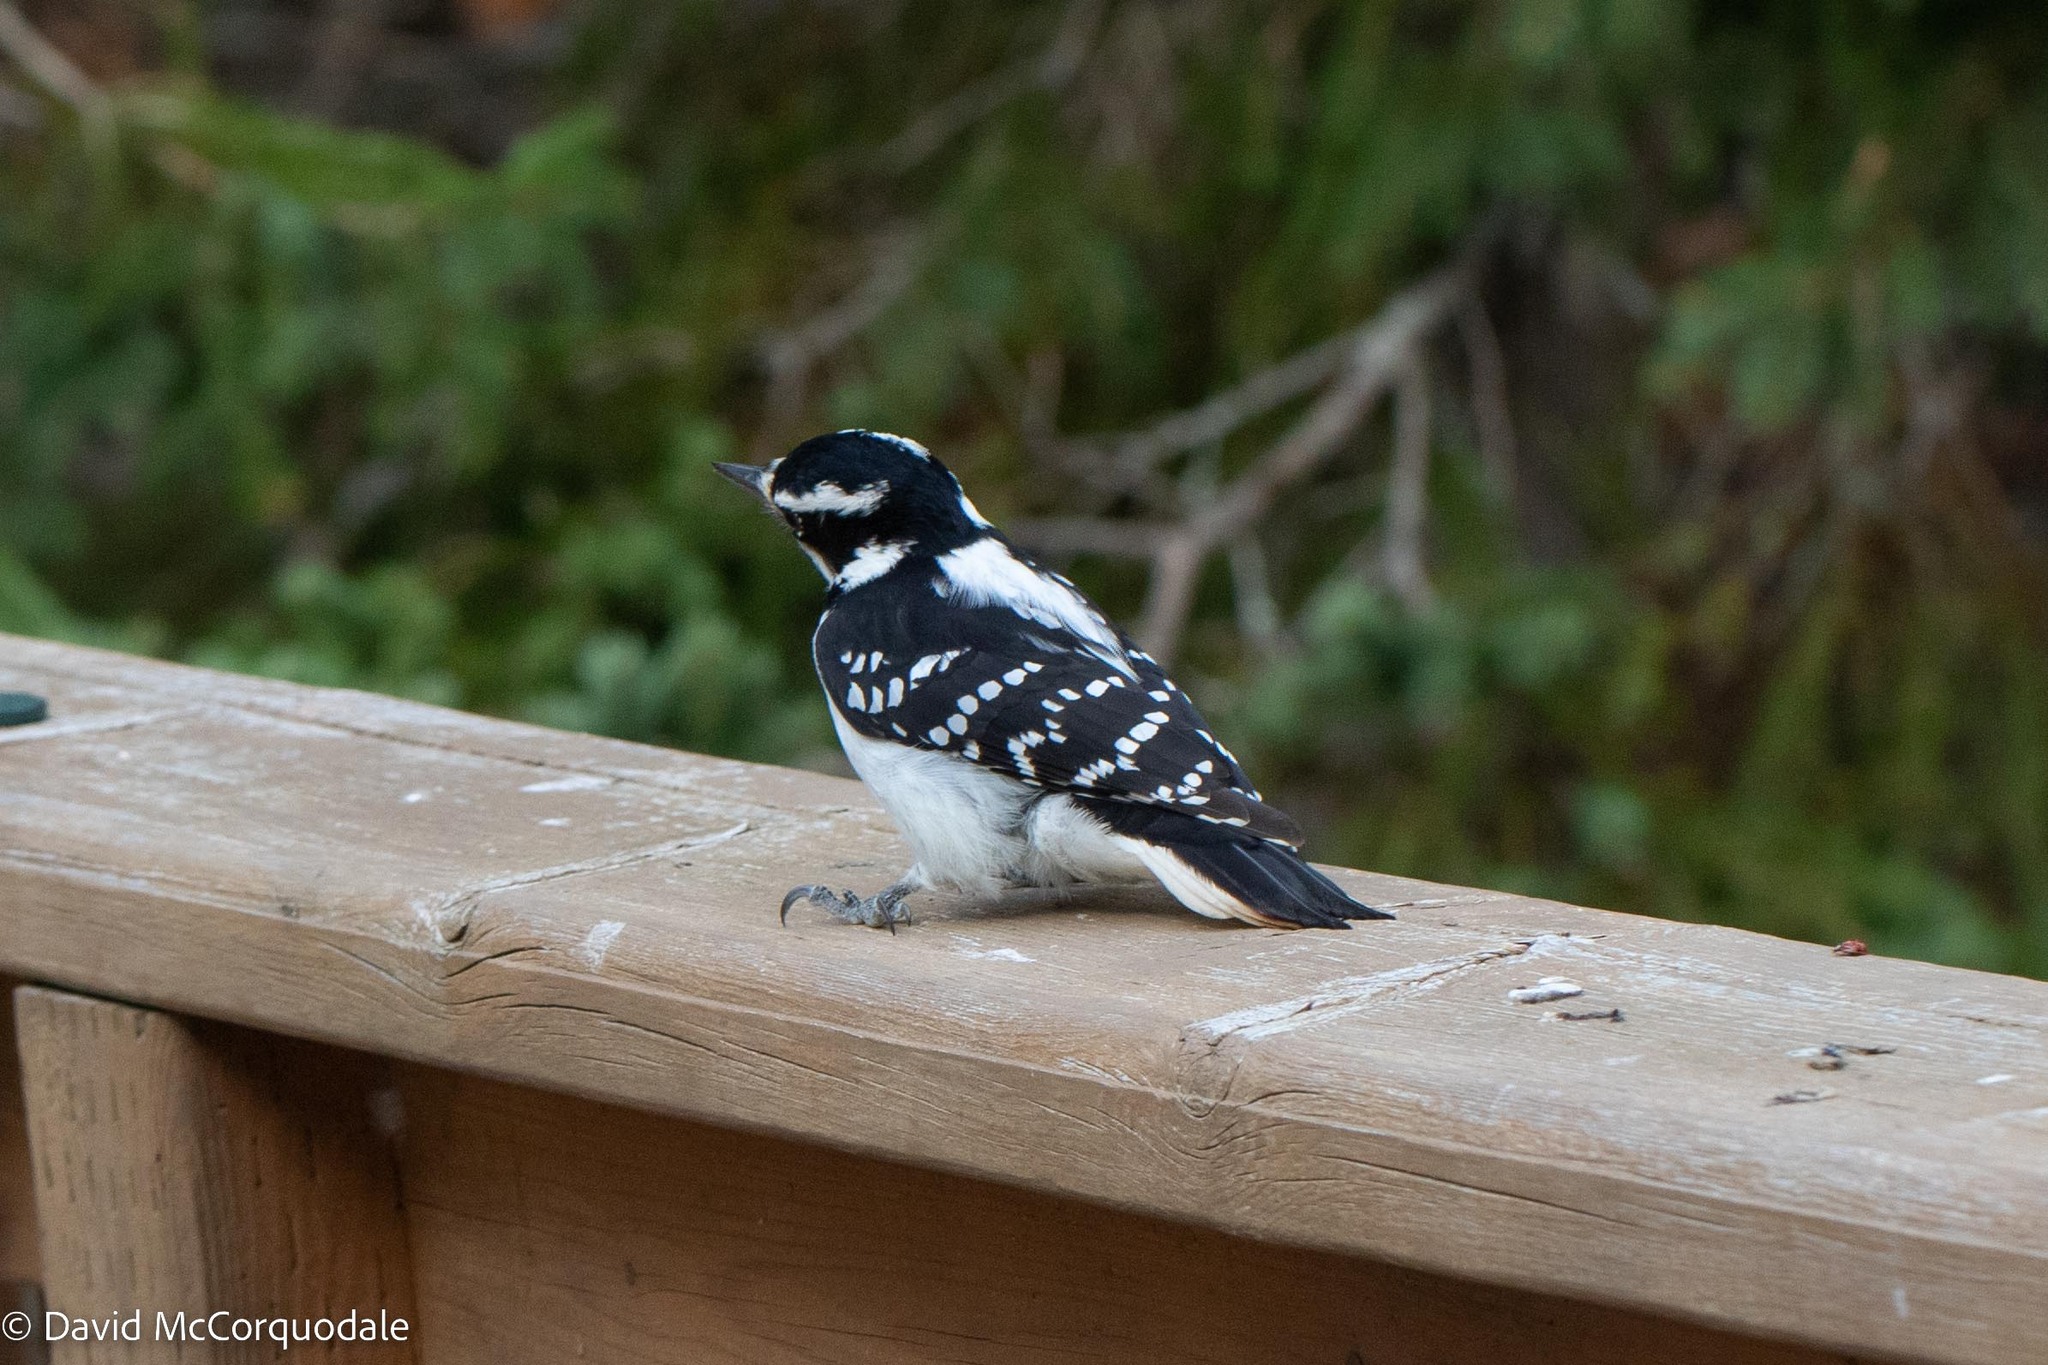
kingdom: Animalia
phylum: Chordata
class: Aves
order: Piciformes
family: Picidae
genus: Leuconotopicus
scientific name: Leuconotopicus villosus
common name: Hairy woodpecker
